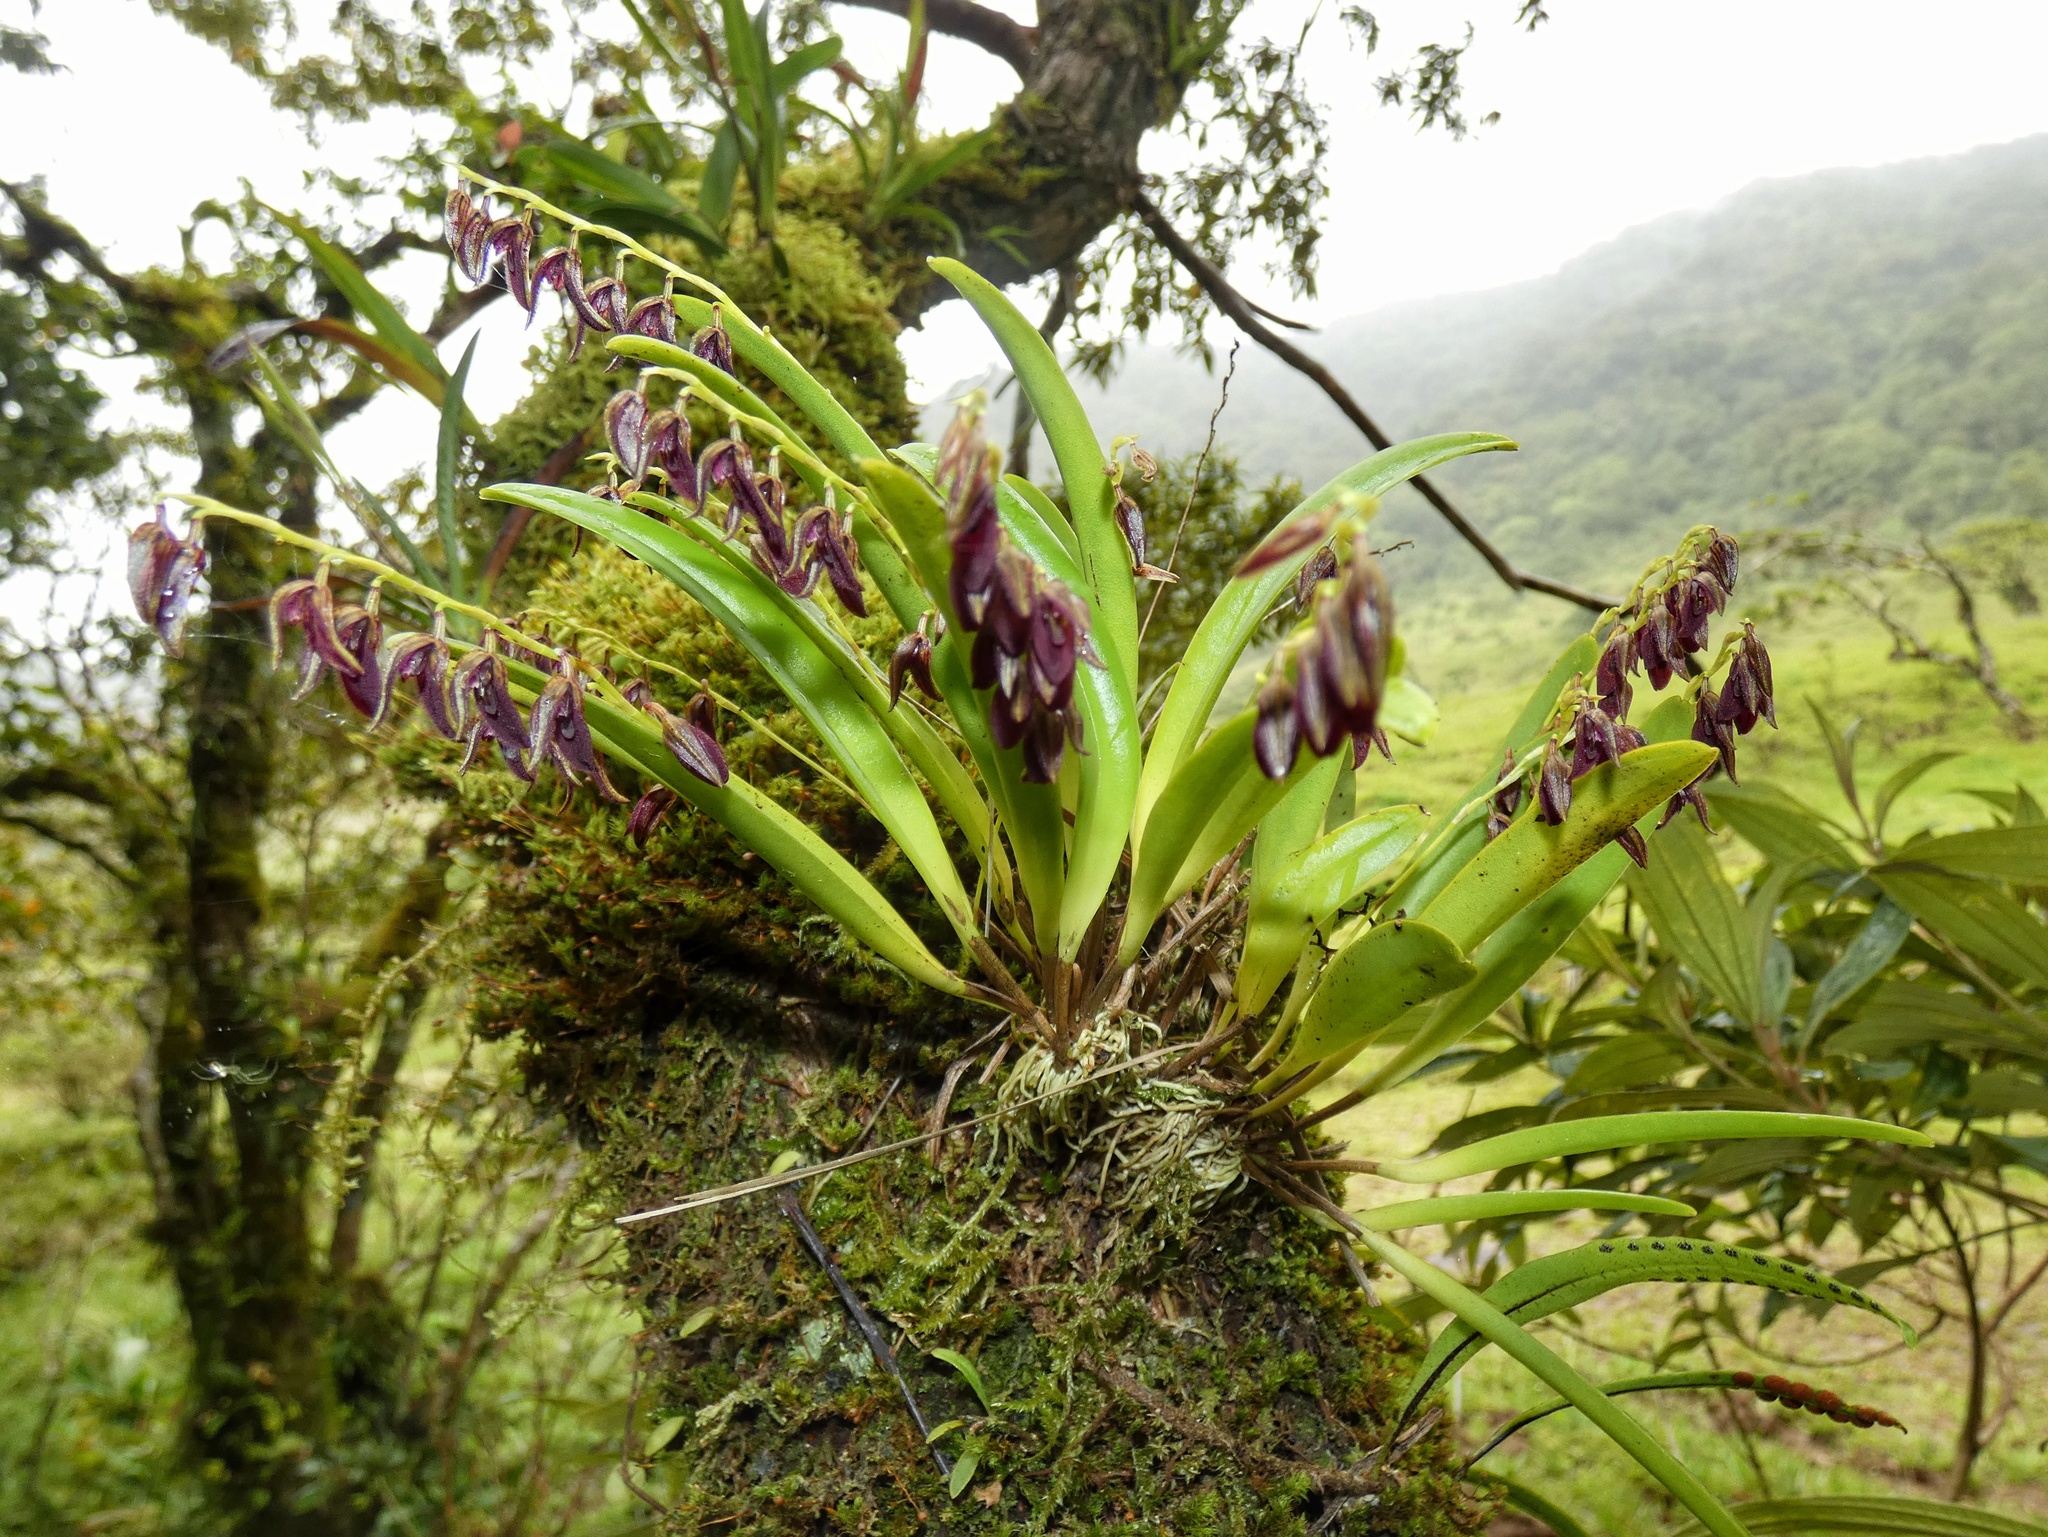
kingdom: Plantae
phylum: Tracheophyta
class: Liliopsida
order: Asparagales
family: Orchidaceae
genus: Stelis
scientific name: Stelis segoviensis
